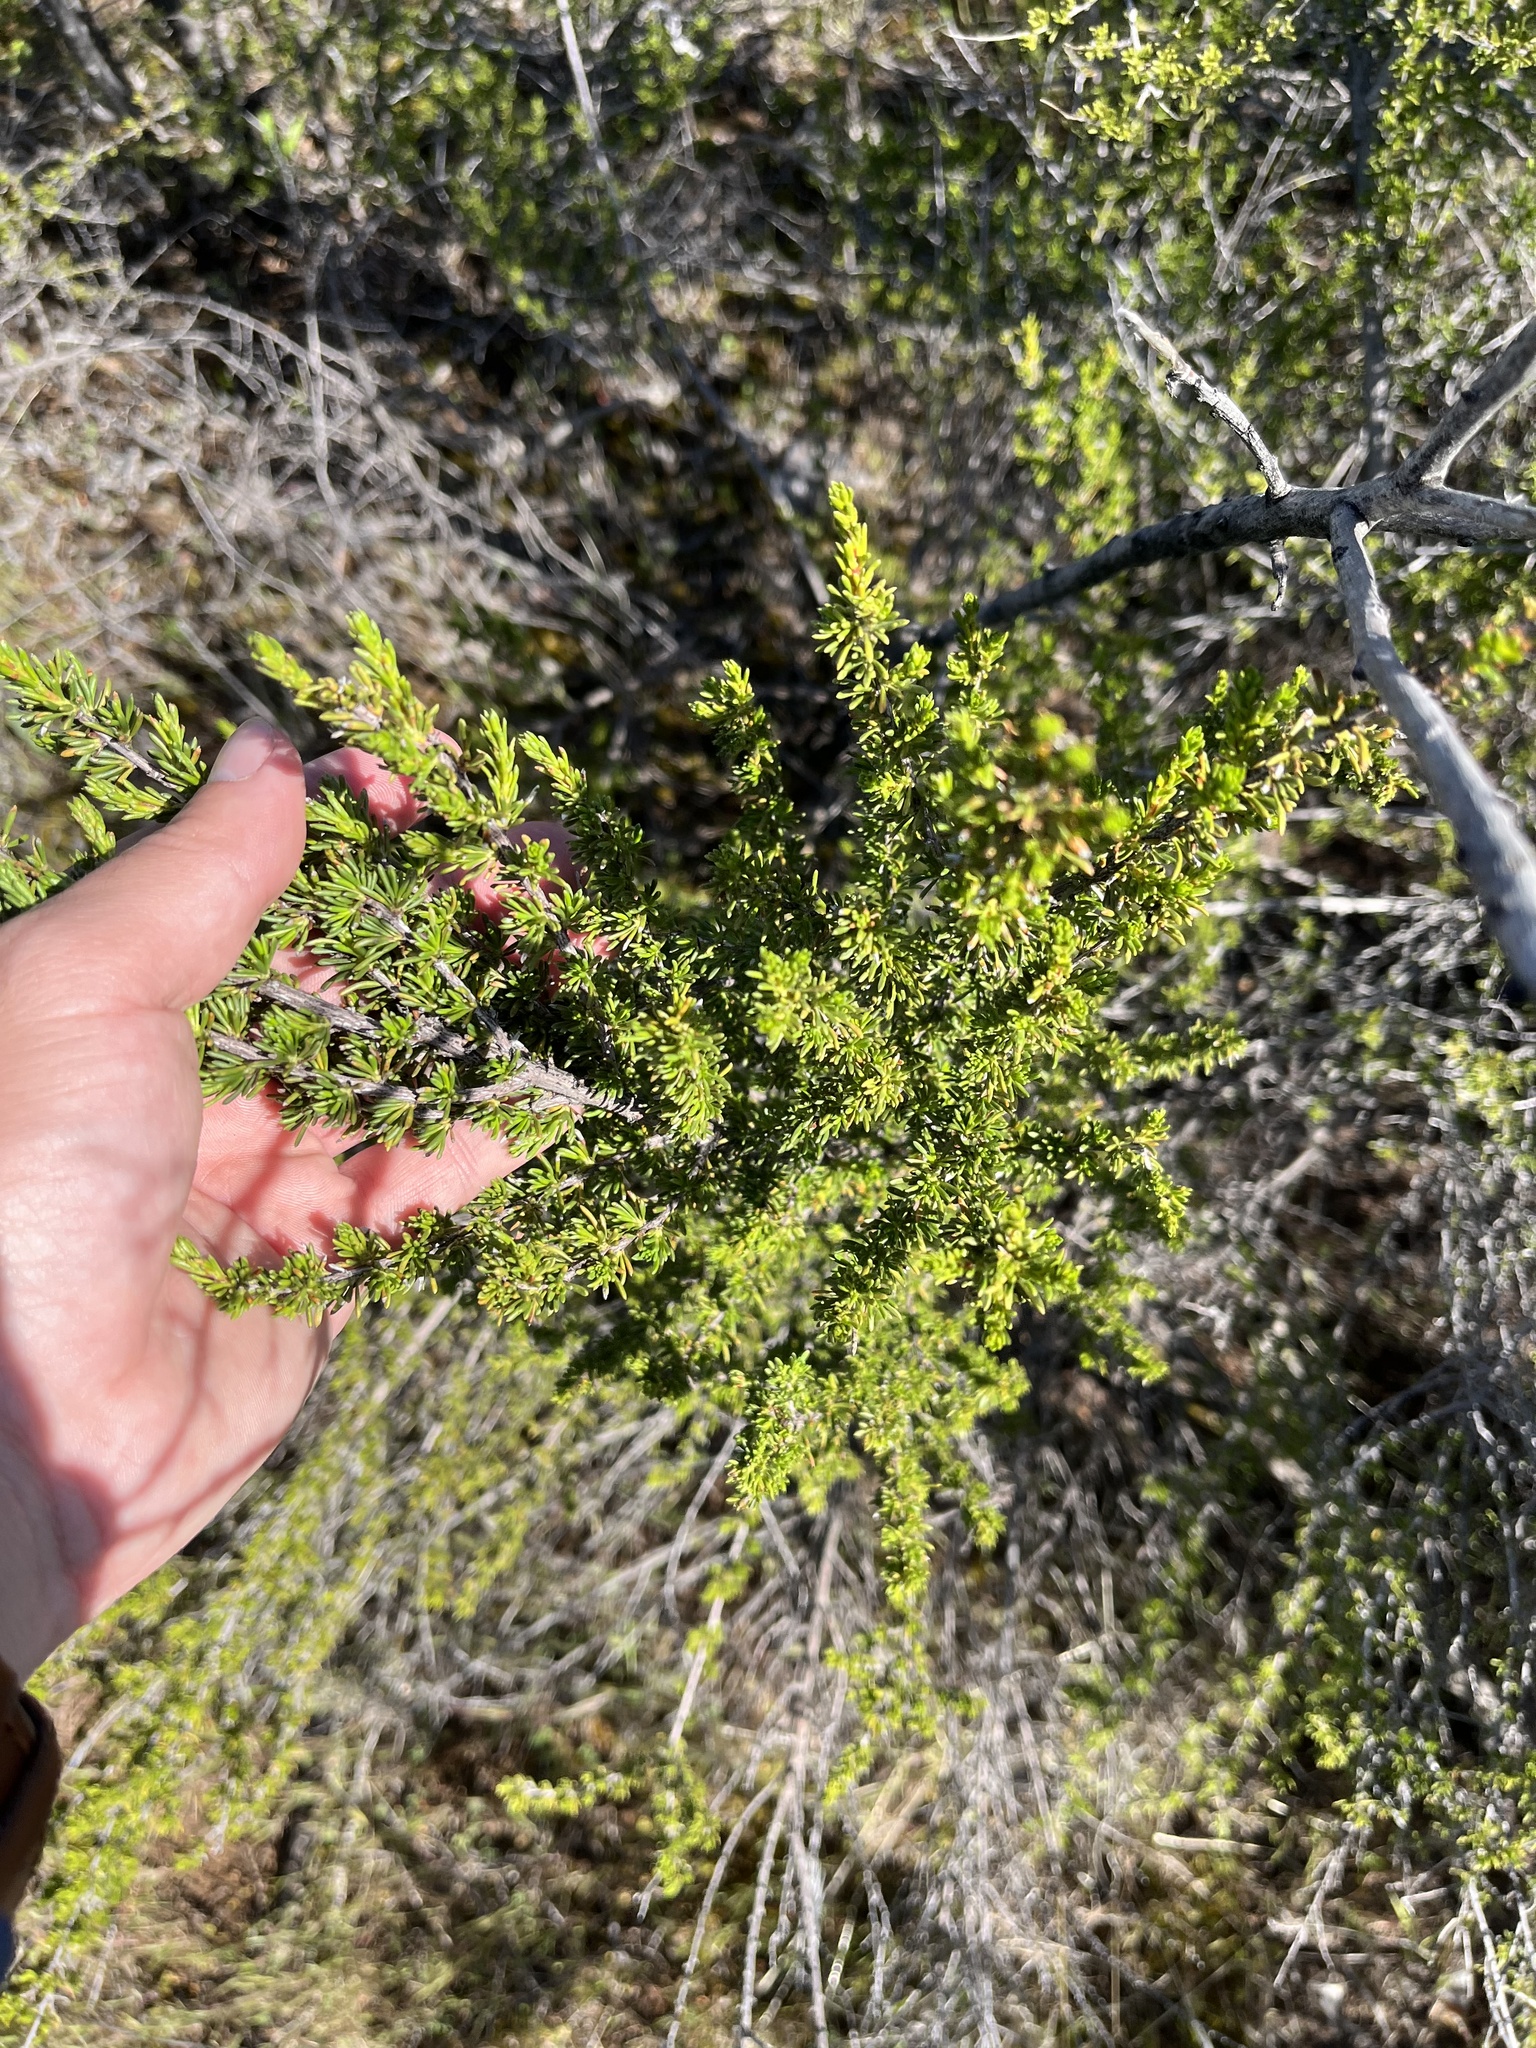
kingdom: Plantae
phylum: Tracheophyta
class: Magnoliopsida
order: Rosales
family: Rosaceae
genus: Adenostoma
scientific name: Adenostoma fasciculatum
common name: Chamise
